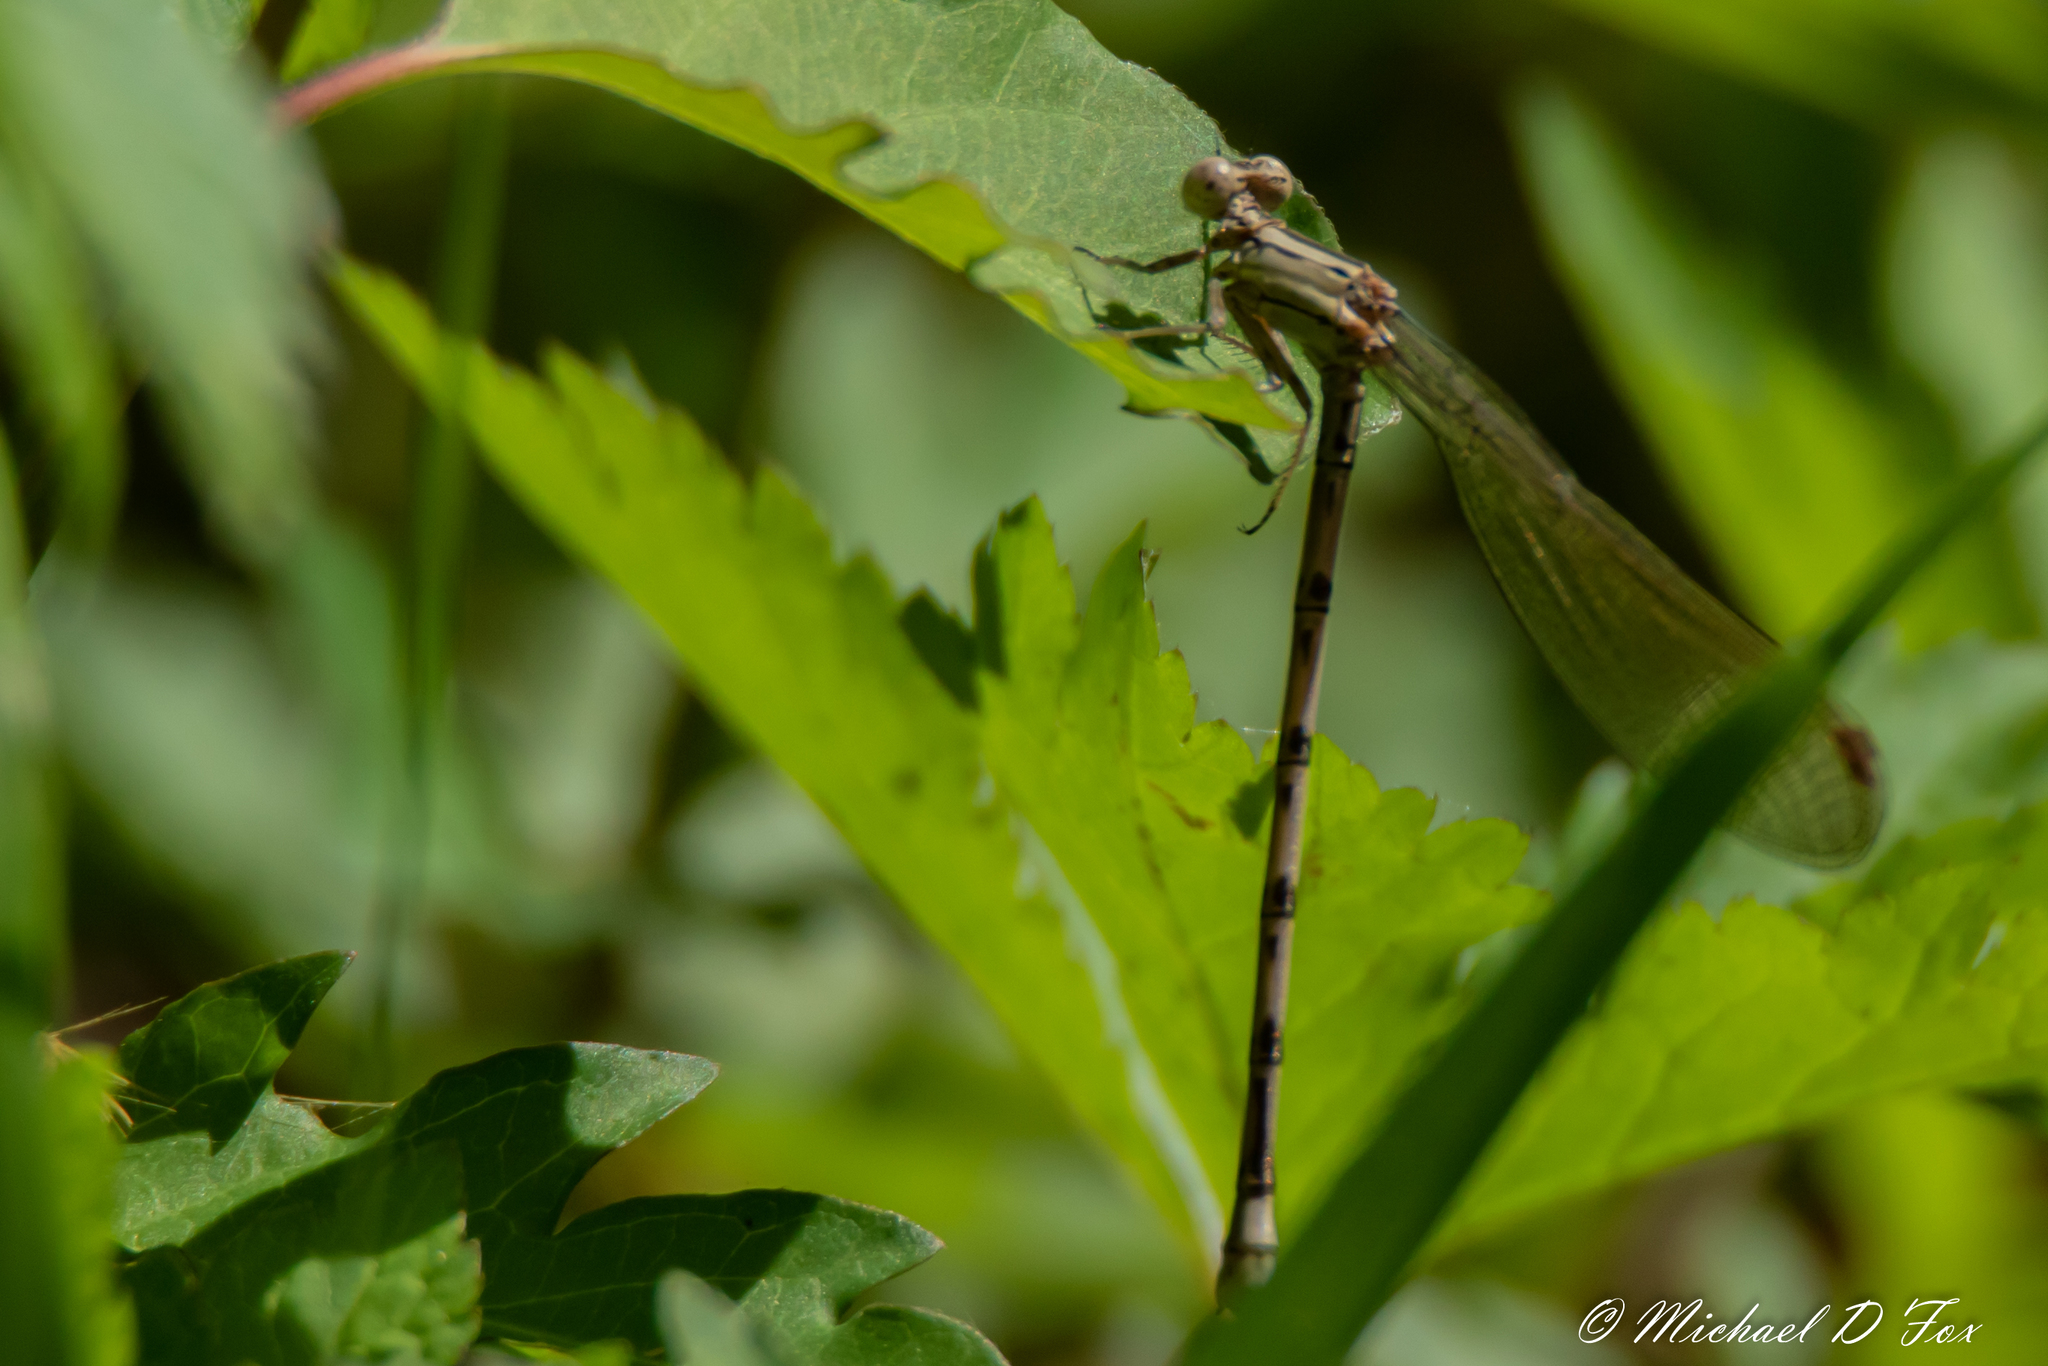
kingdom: Animalia
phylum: Arthropoda
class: Insecta
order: Odonata
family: Coenagrionidae
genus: Argia
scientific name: Argia funebris
